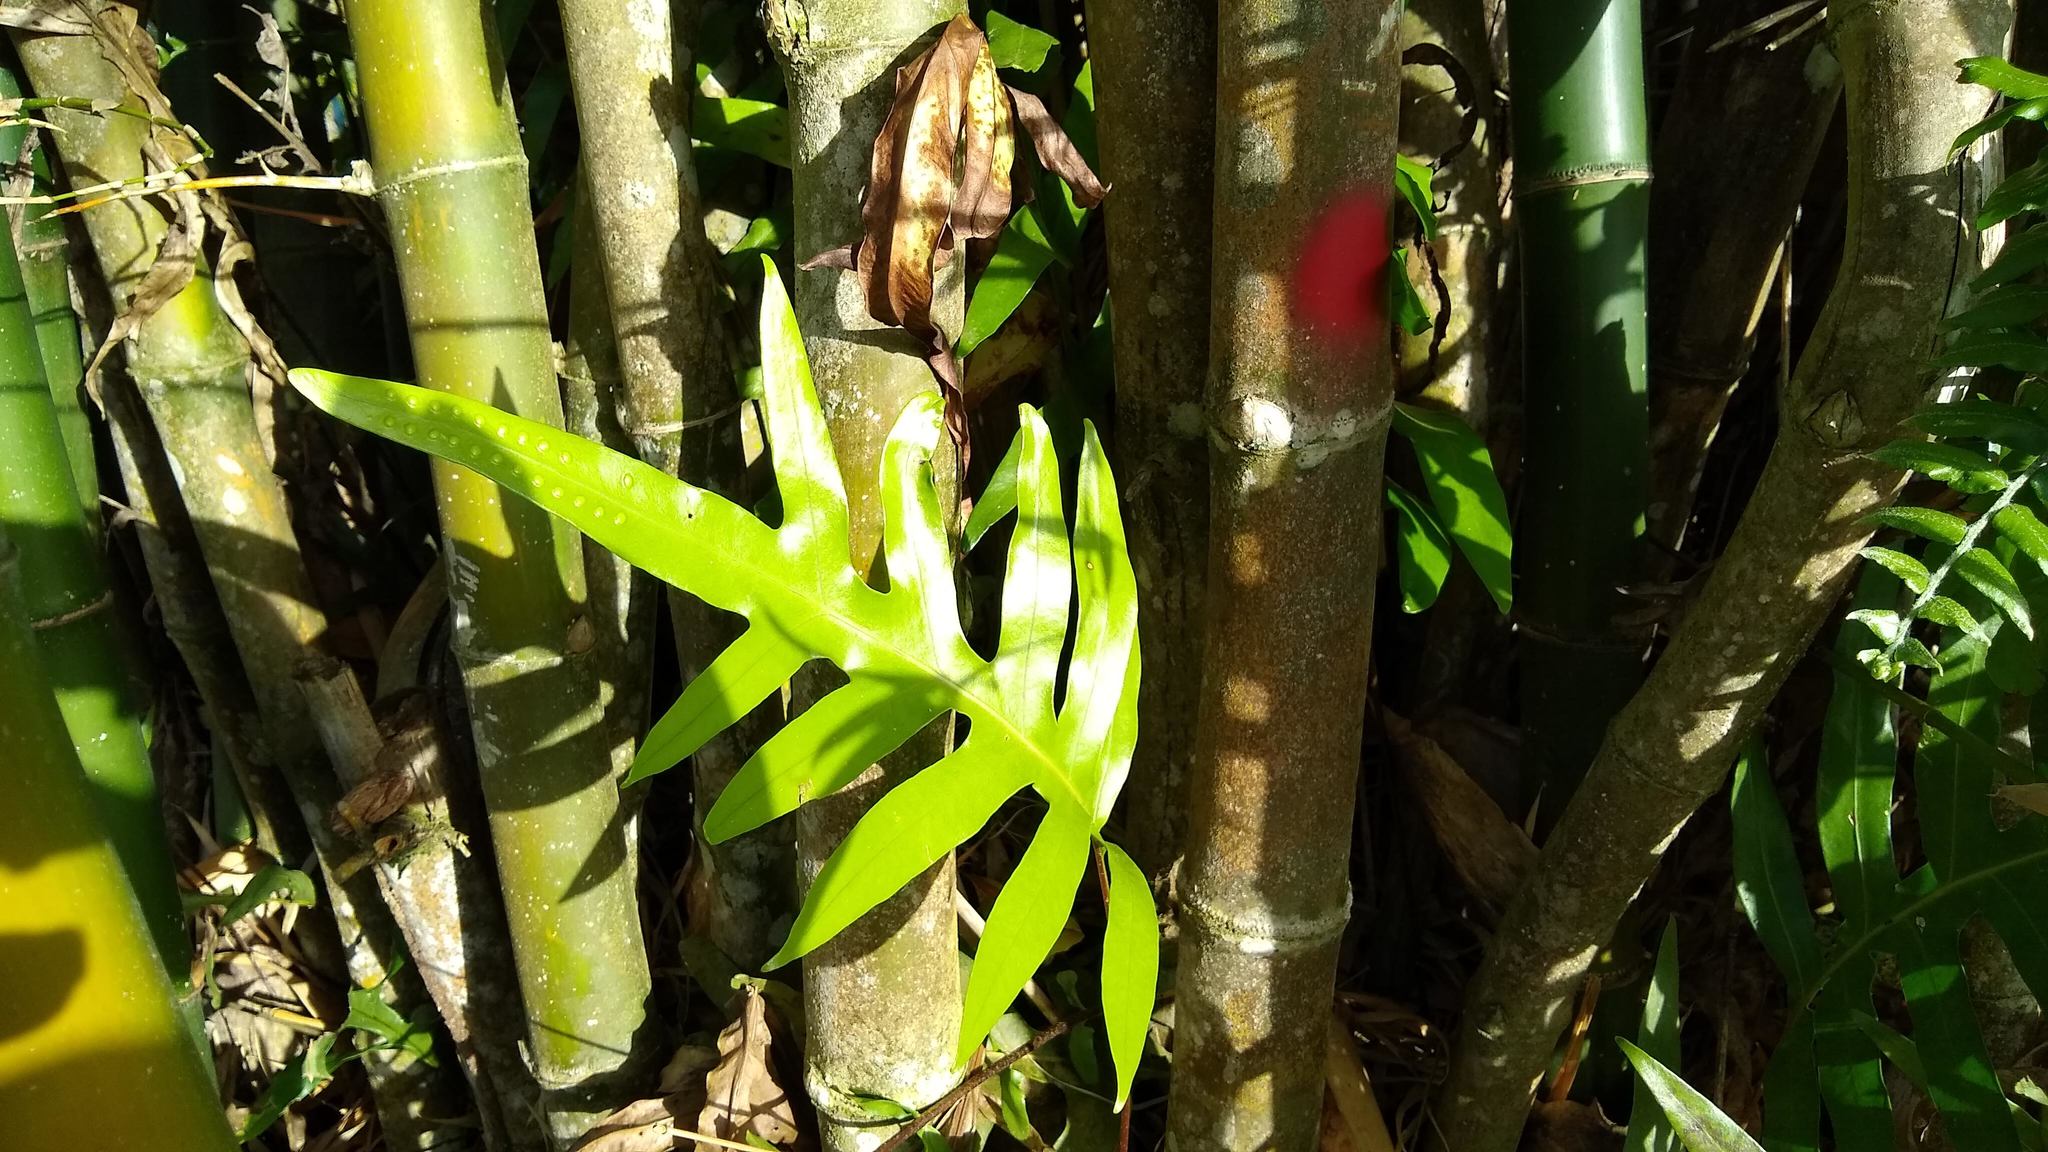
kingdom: Plantae
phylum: Tracheophyta
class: Polypodiopsida
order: Polypodiales
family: Polypodiaceae
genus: Microsorum
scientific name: Microsorum scolopendria
